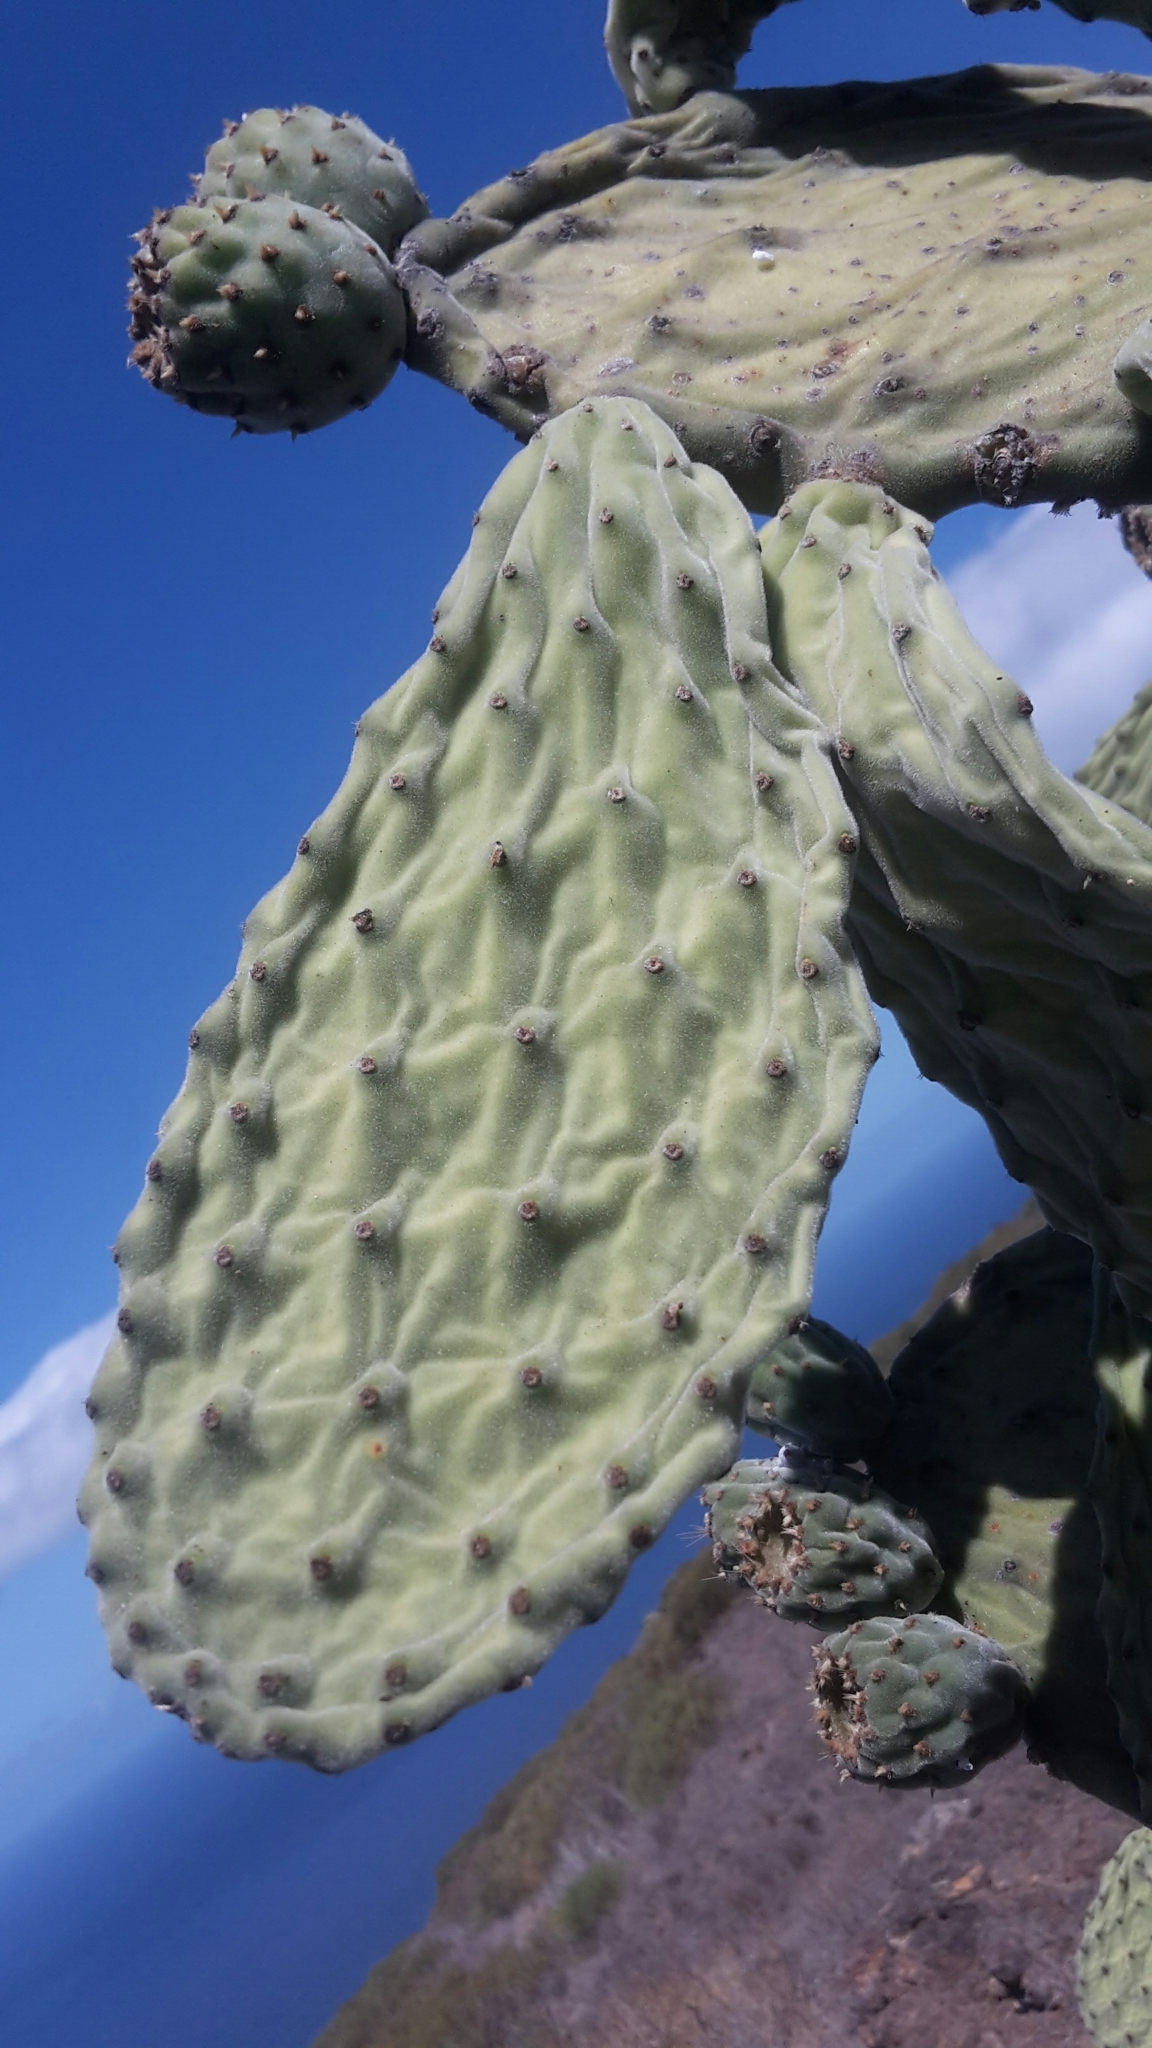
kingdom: Plantae
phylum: Tracheophyta
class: Magnoliopsida
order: Caryophyllales
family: Cactaceae
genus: Opuntia
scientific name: Opuntia tomentosa
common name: Woollyjoint pricklypear
